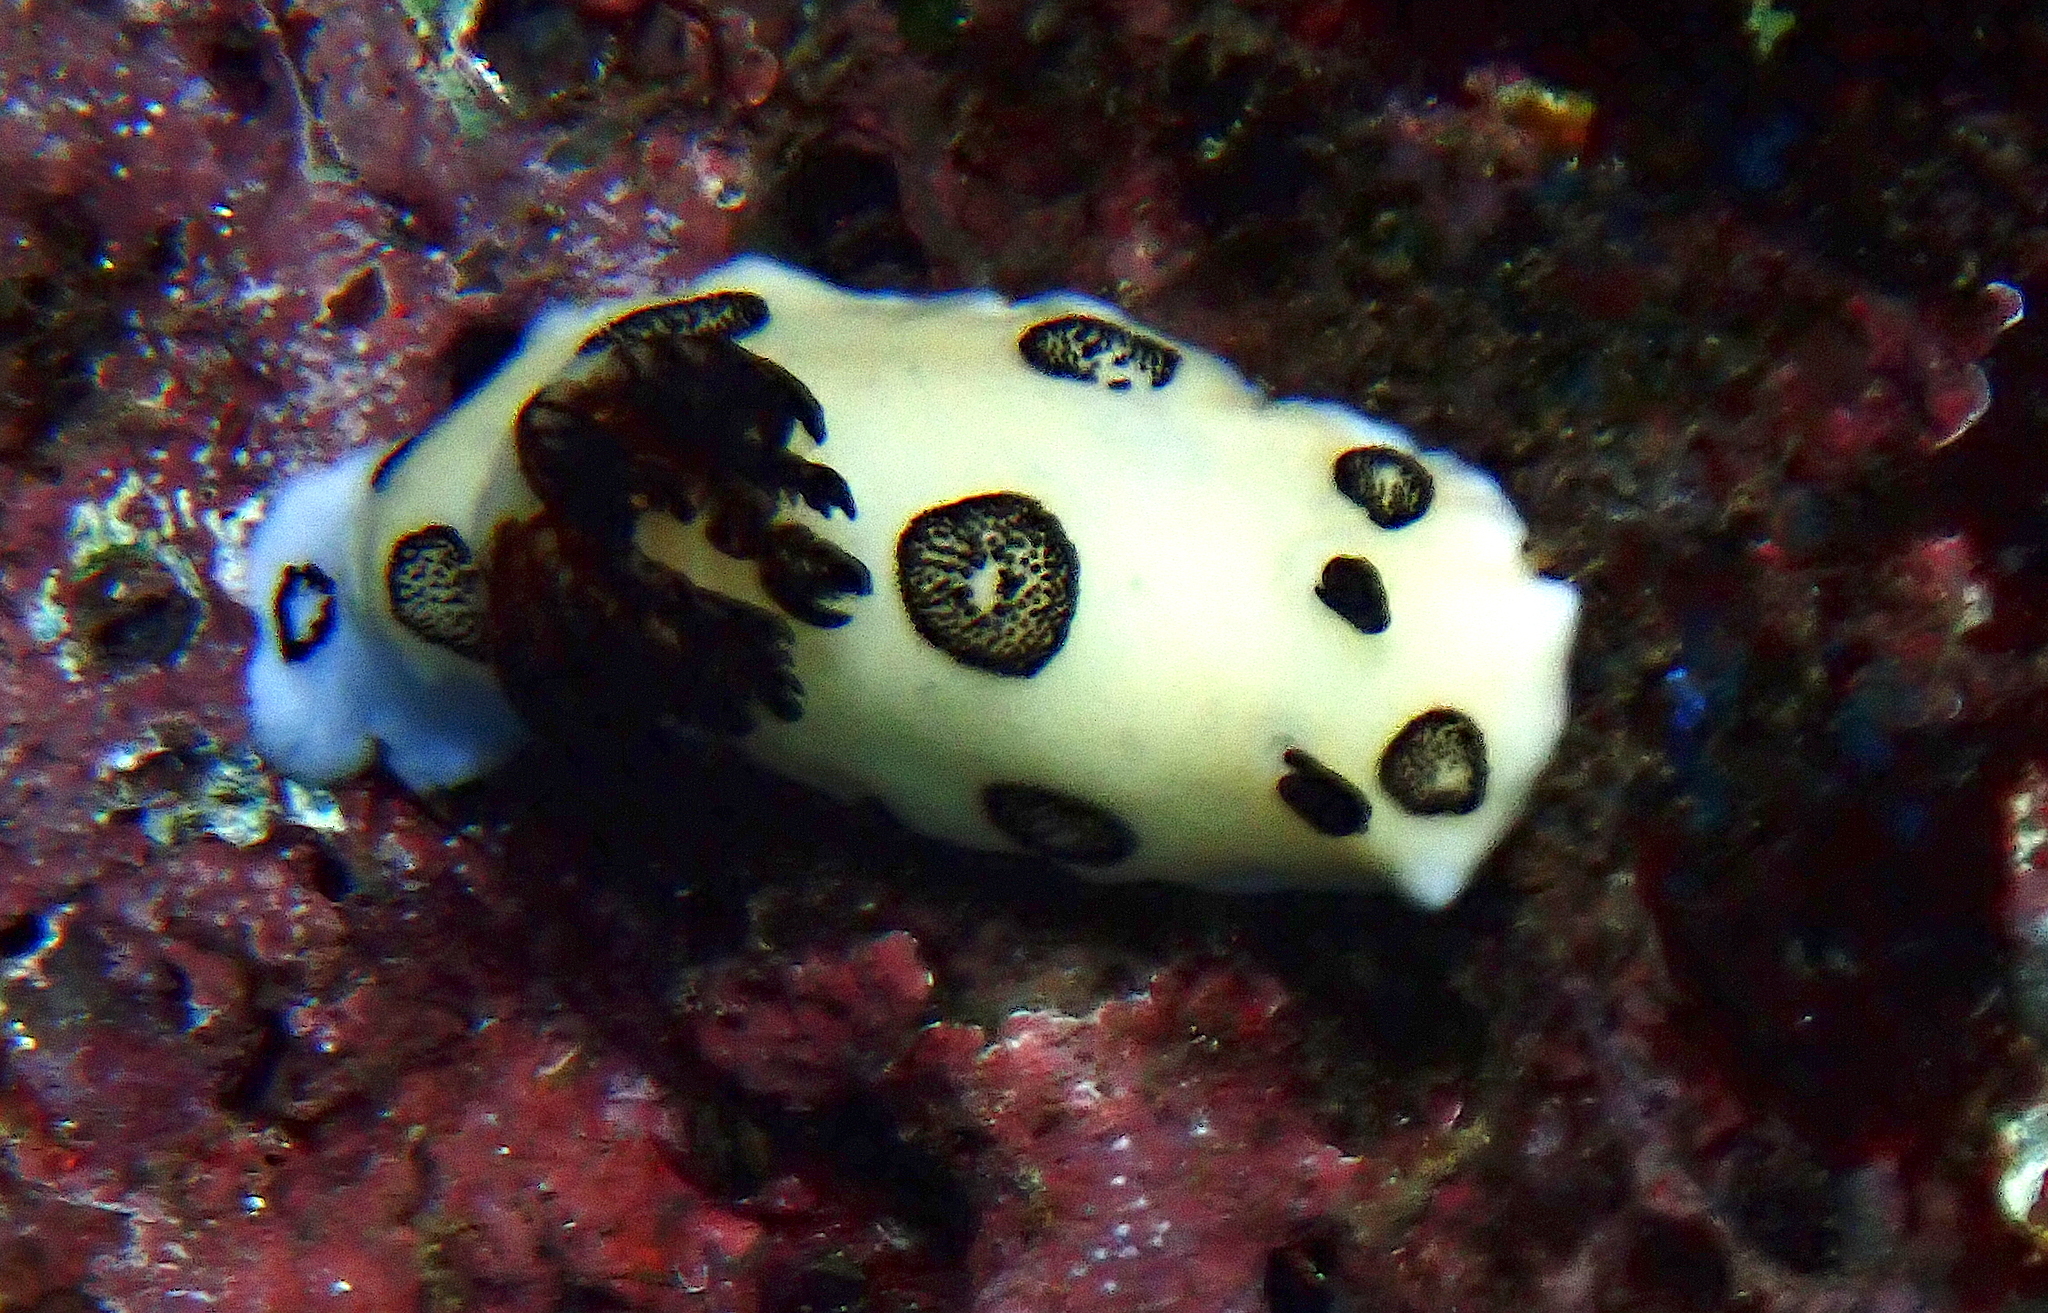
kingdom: Animalia
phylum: Mollusca
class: Gastropoda
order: Nudibranchia
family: Discodorididae
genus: Jorunna
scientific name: Jorunna funebris
